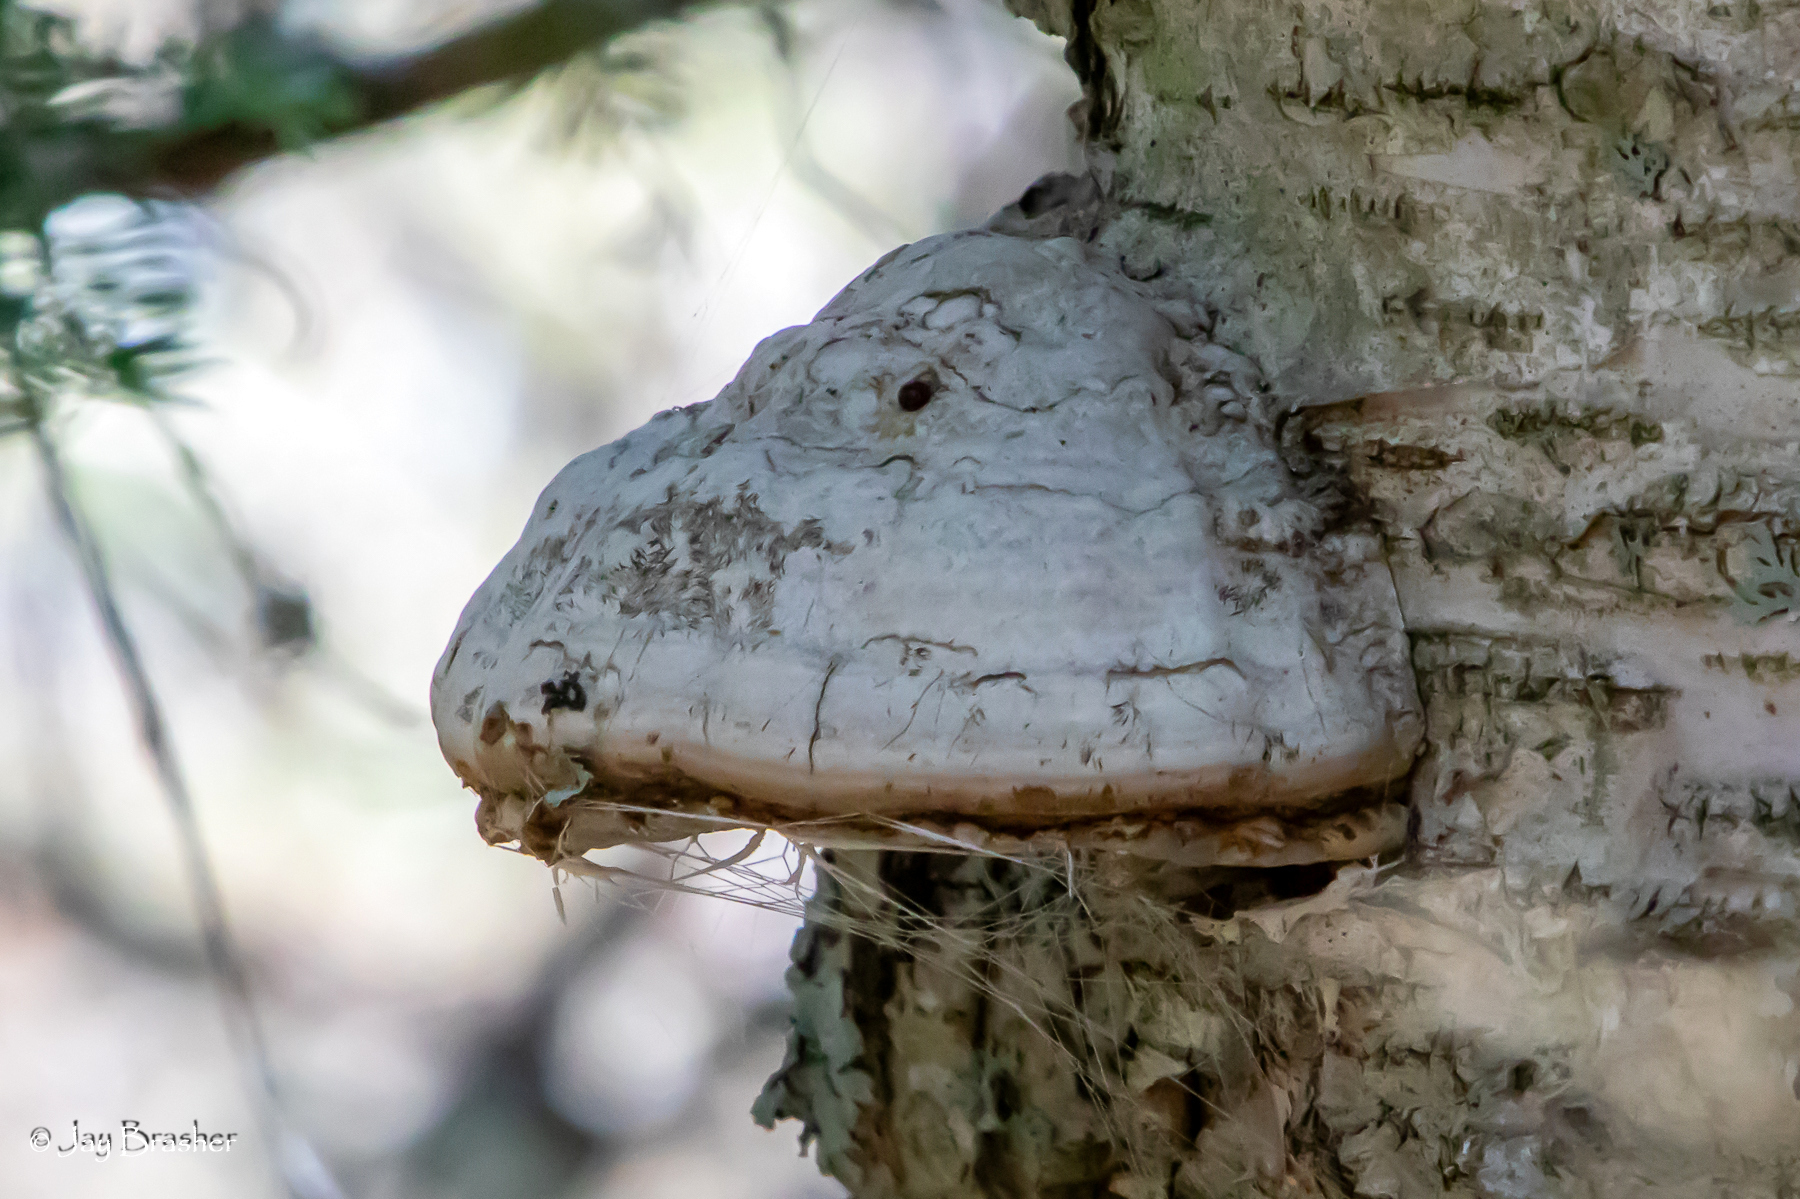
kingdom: Fungi
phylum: Basidiomycota
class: Agaricomycetes
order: Polyporales
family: Polyporaceae
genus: Fomes
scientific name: Fomes fomentarius
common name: Hoof fungus
